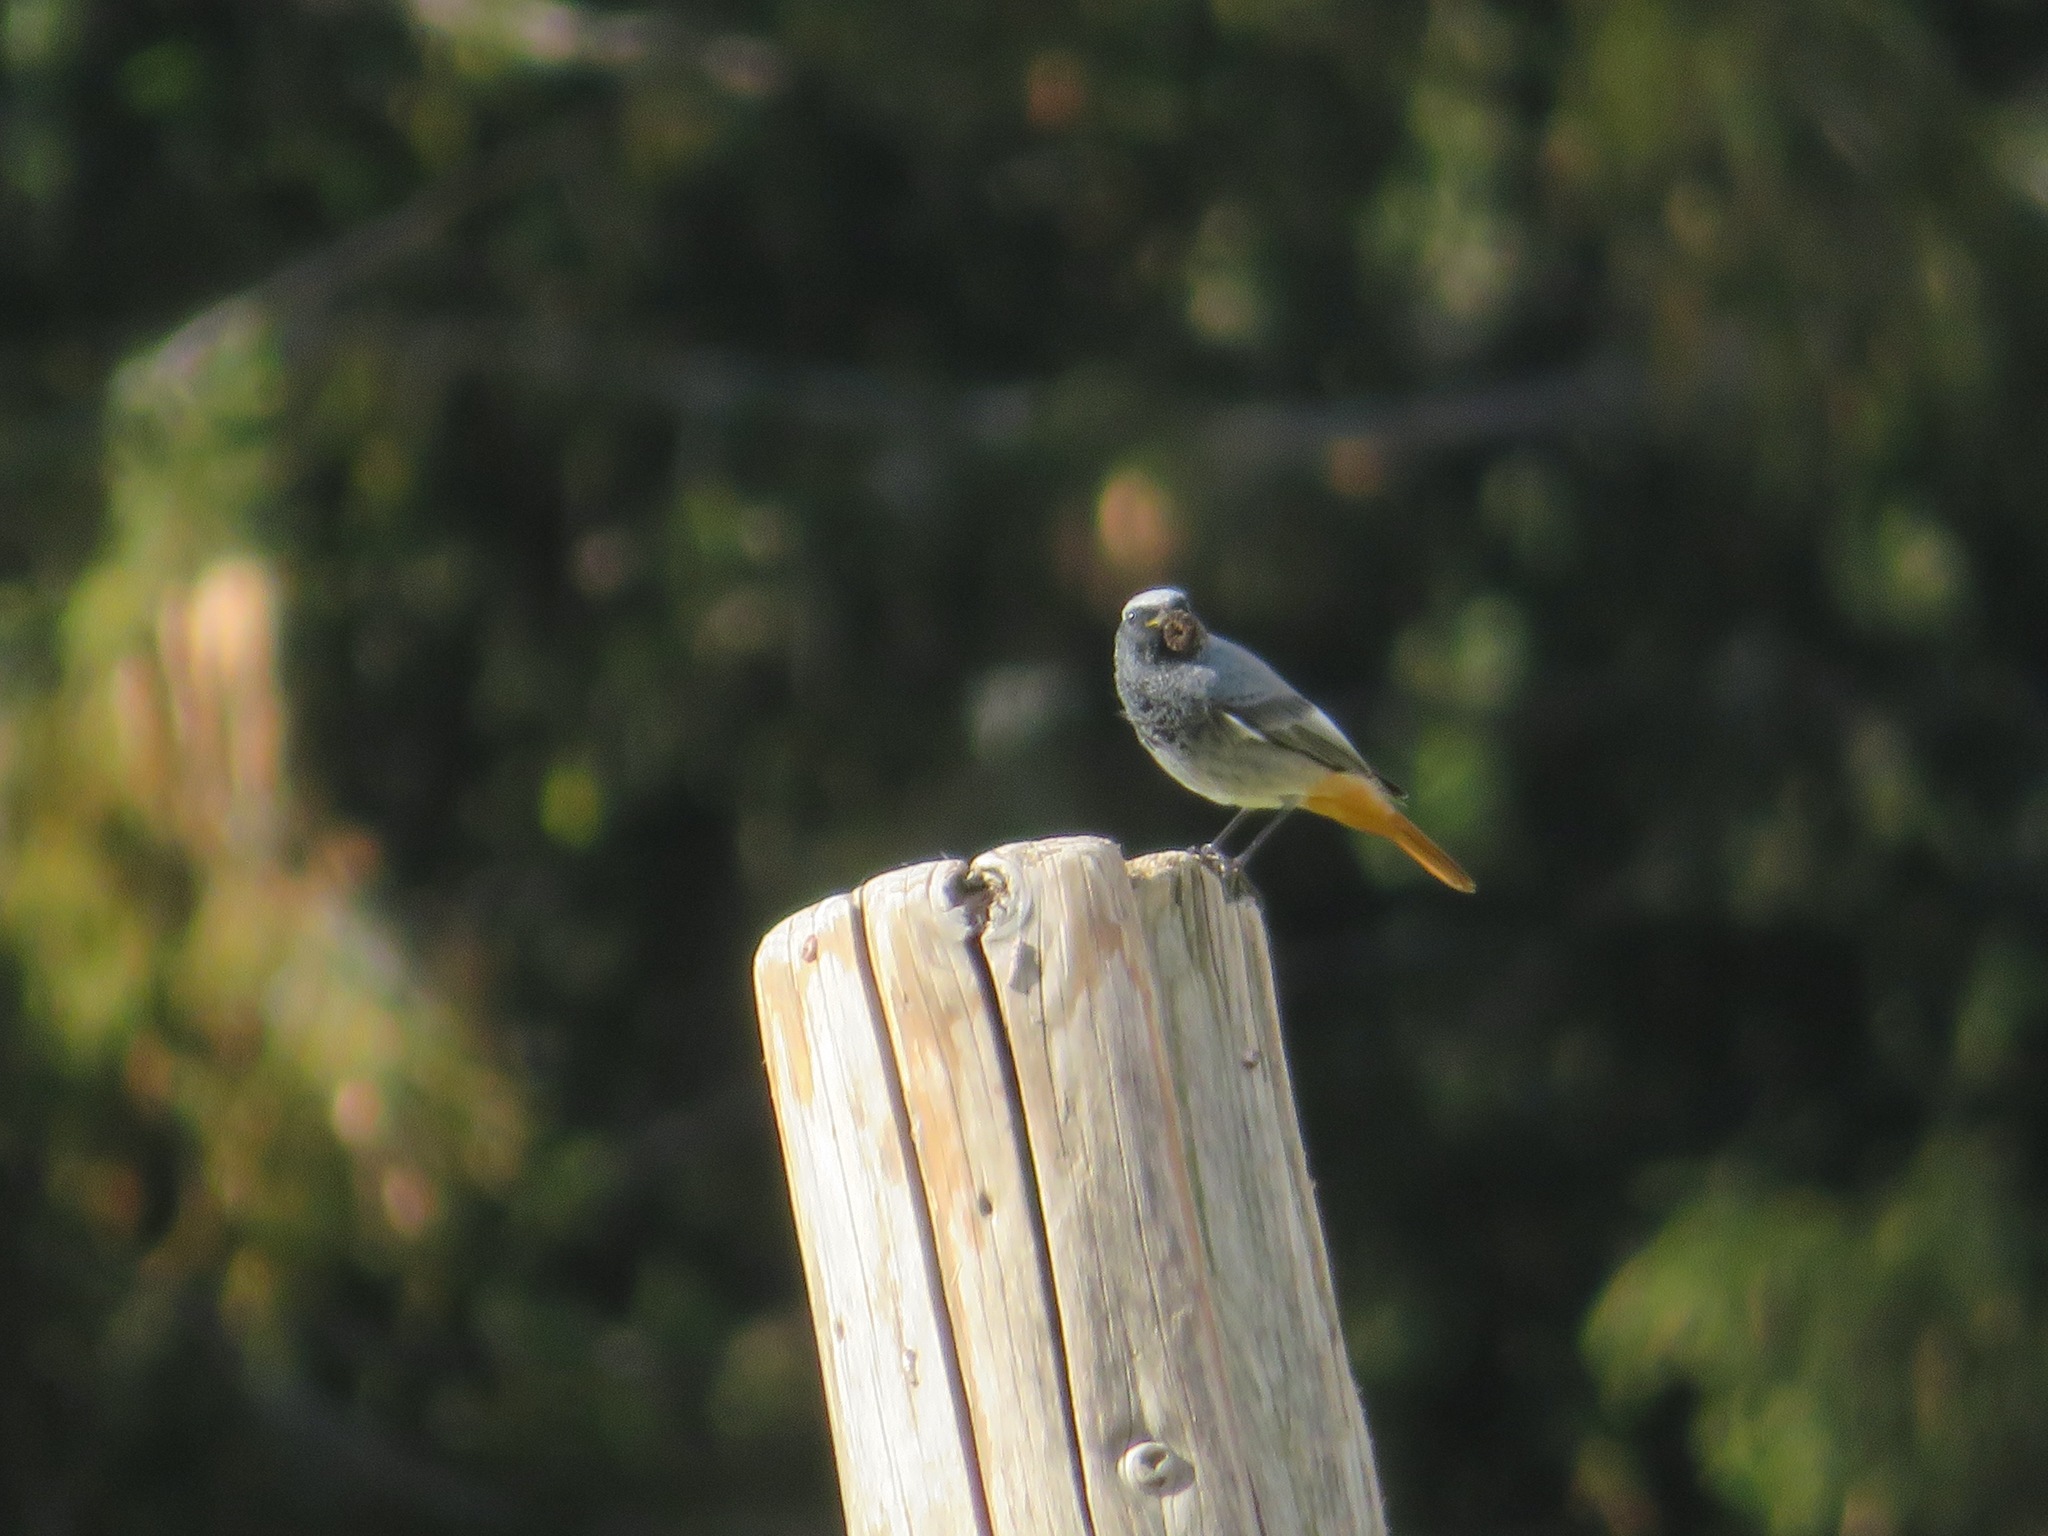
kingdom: Animalia
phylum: Chordata
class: Aves
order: Passeriformes
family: Muscicapidae
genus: Phoenicurus
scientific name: Phoenicurus ochruros
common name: Black redstart
